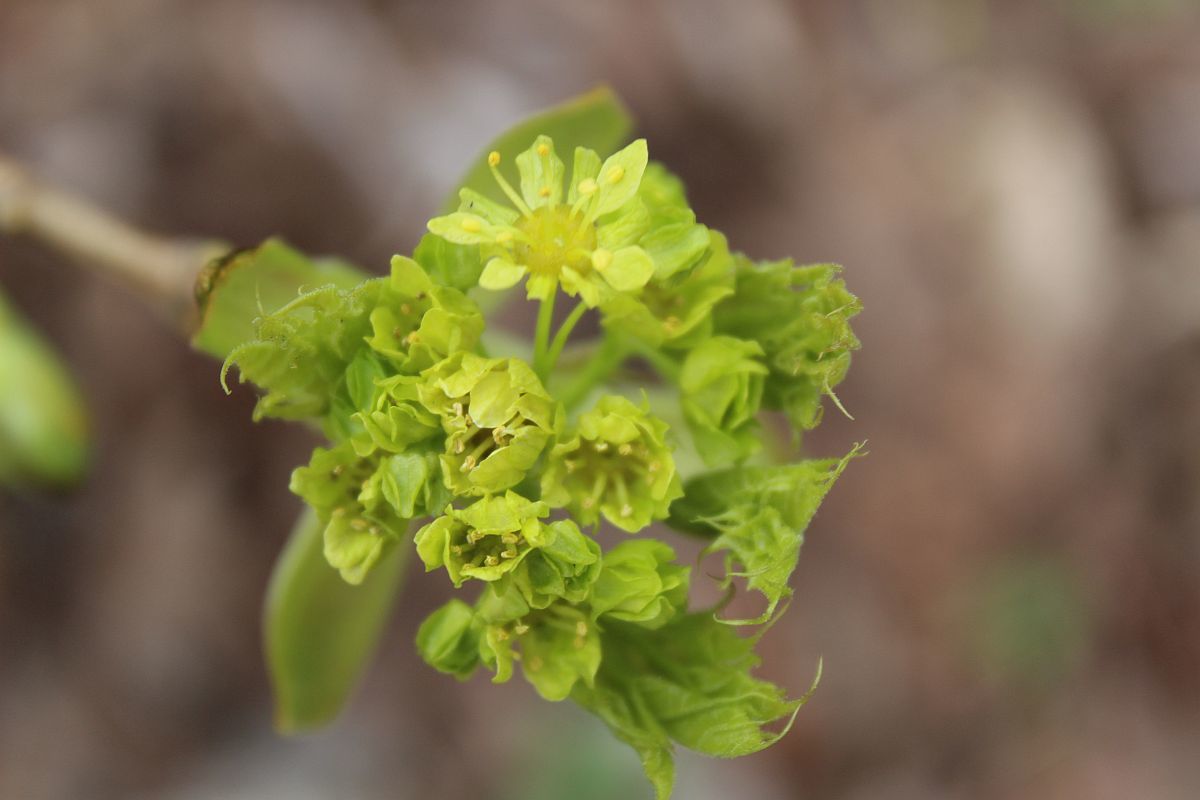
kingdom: Plantae
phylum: Tracheophyta
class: Magnoliopsida
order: Sapindales
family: Sapindaceae
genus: Acer
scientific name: Acer platanoides
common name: Norway maple
